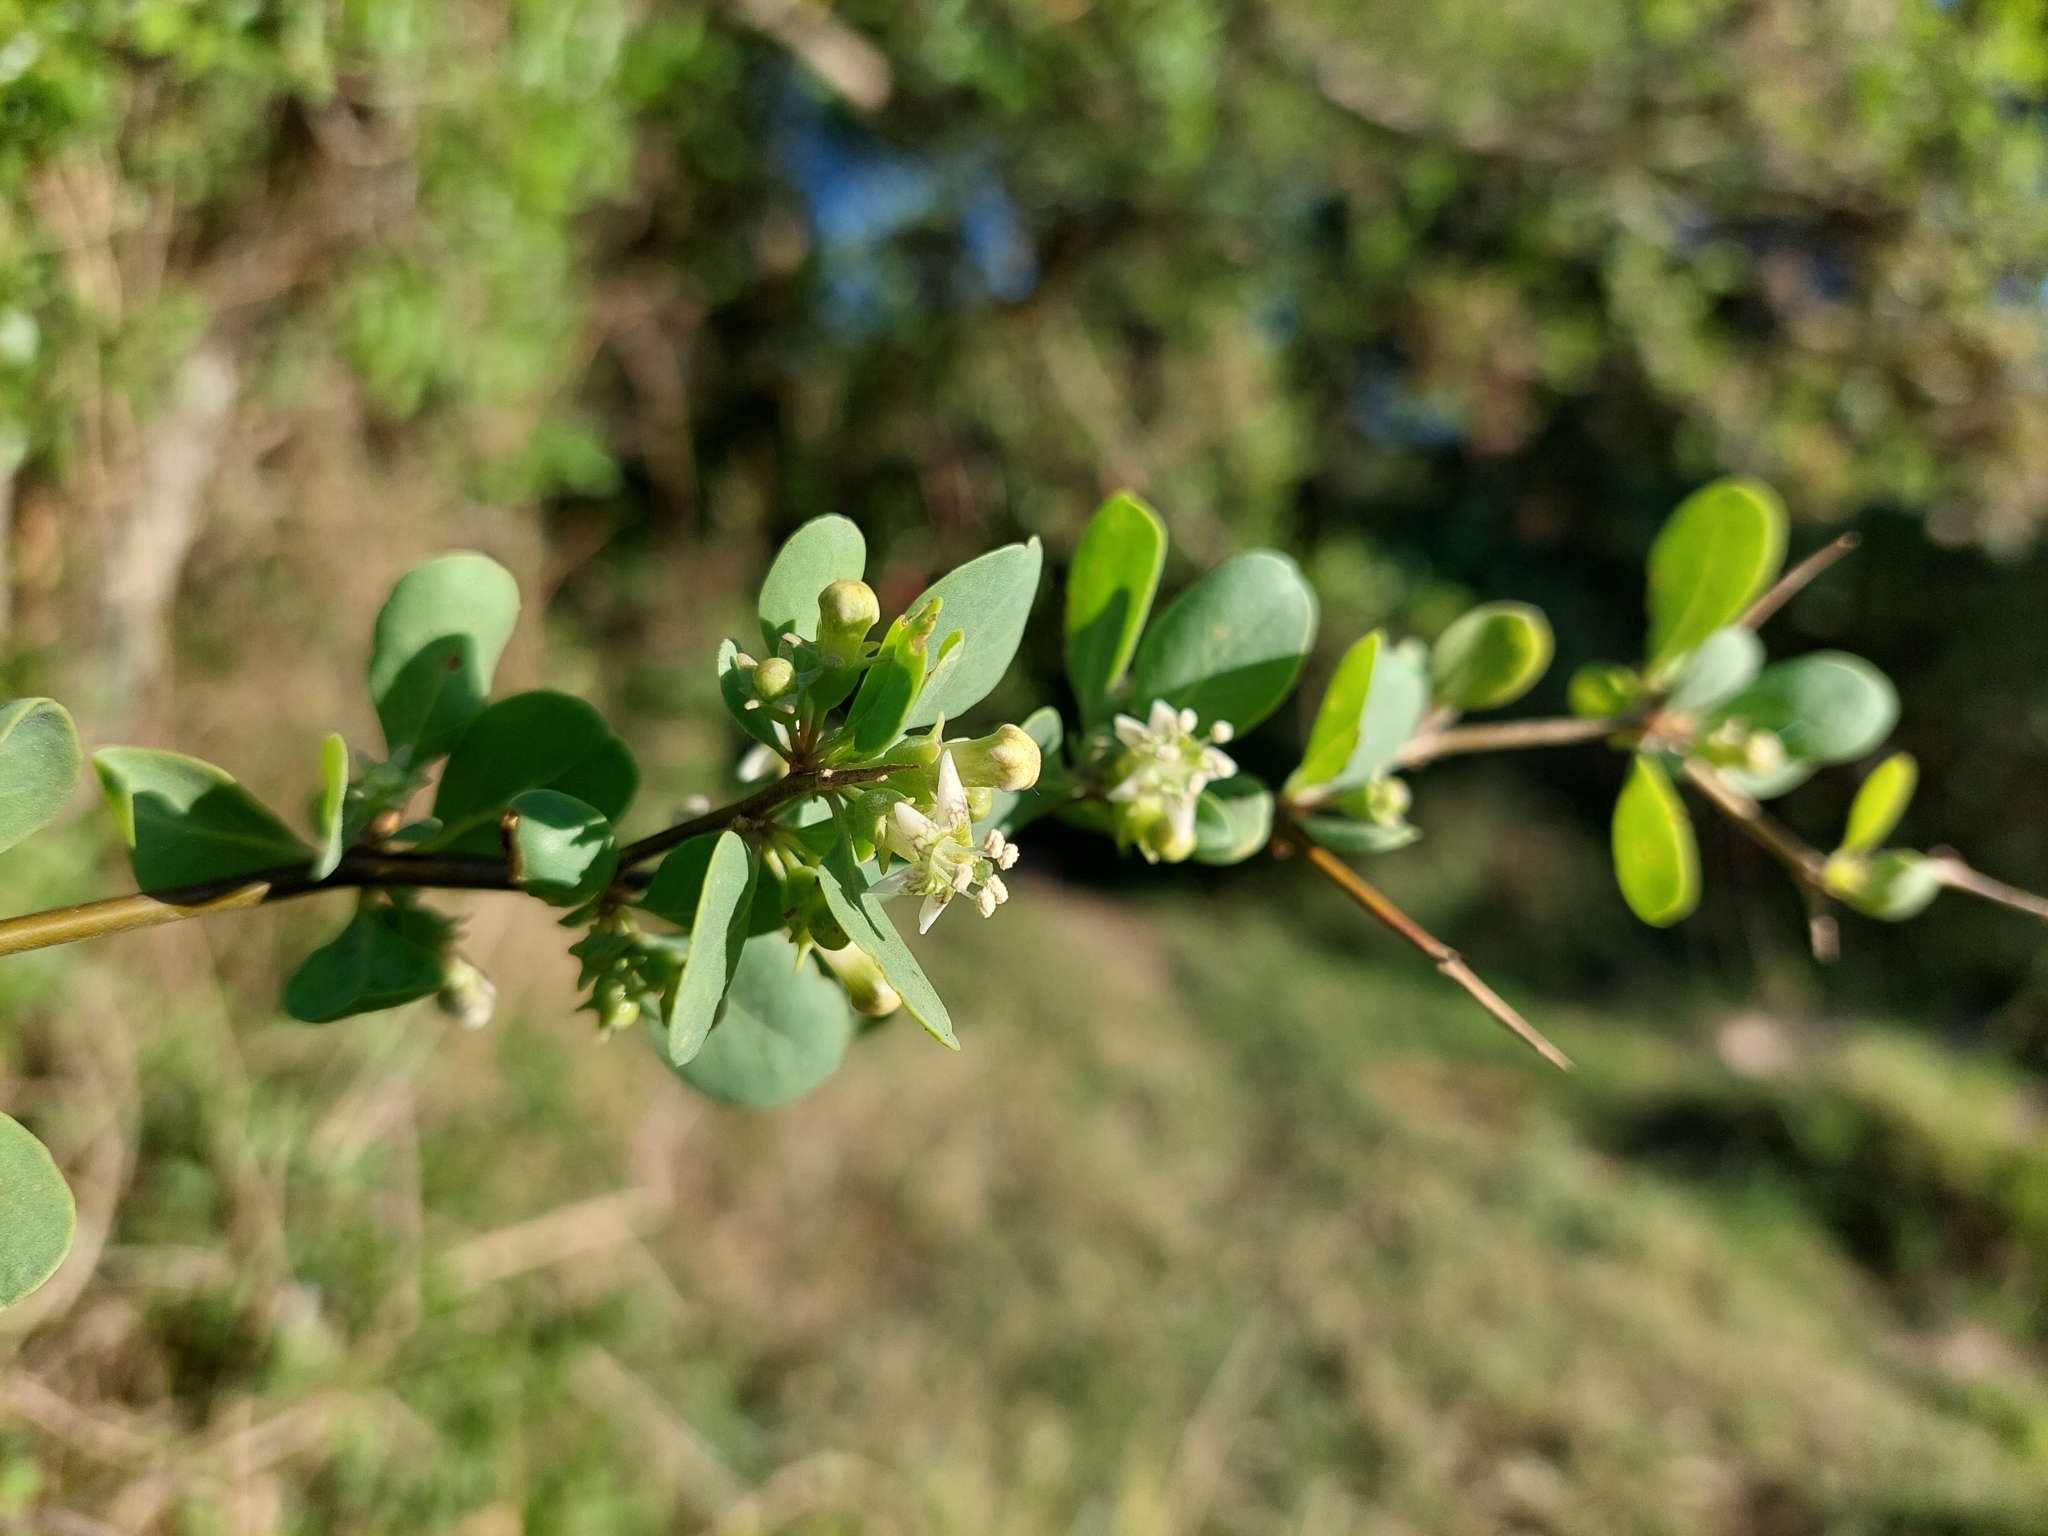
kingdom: Plantae
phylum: Tracheophyta
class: Magnoliopsida
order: Solanales
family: Solanaceae
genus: Lycium
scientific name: Lycium boerhaaviifolium
